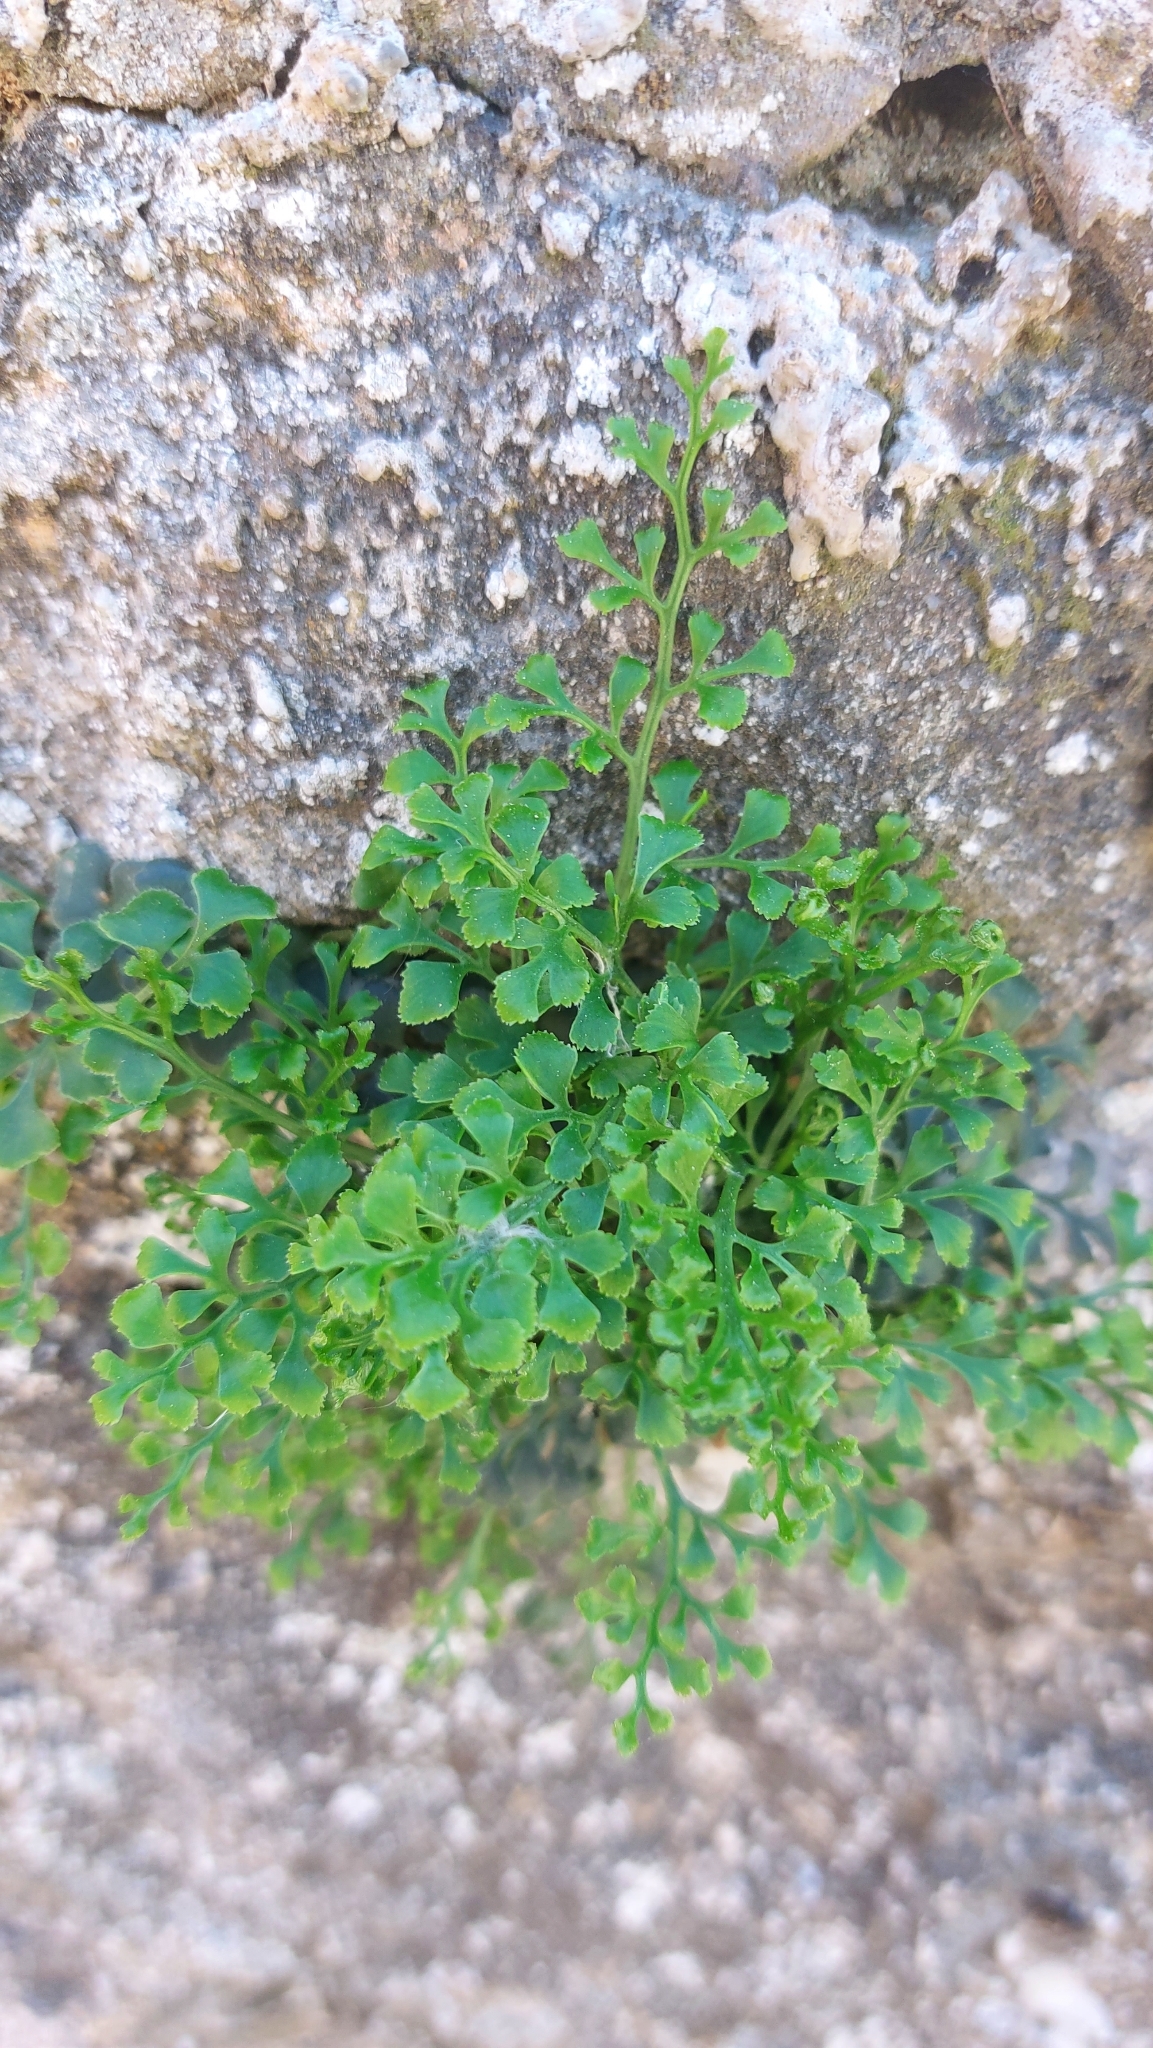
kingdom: Plantae
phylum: Tracheophyta
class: Polypodiopsida
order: Polypodiales
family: Aspleniaceae
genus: Asplenium
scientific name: Asplenium ruta-muraria
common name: Wall-rue
